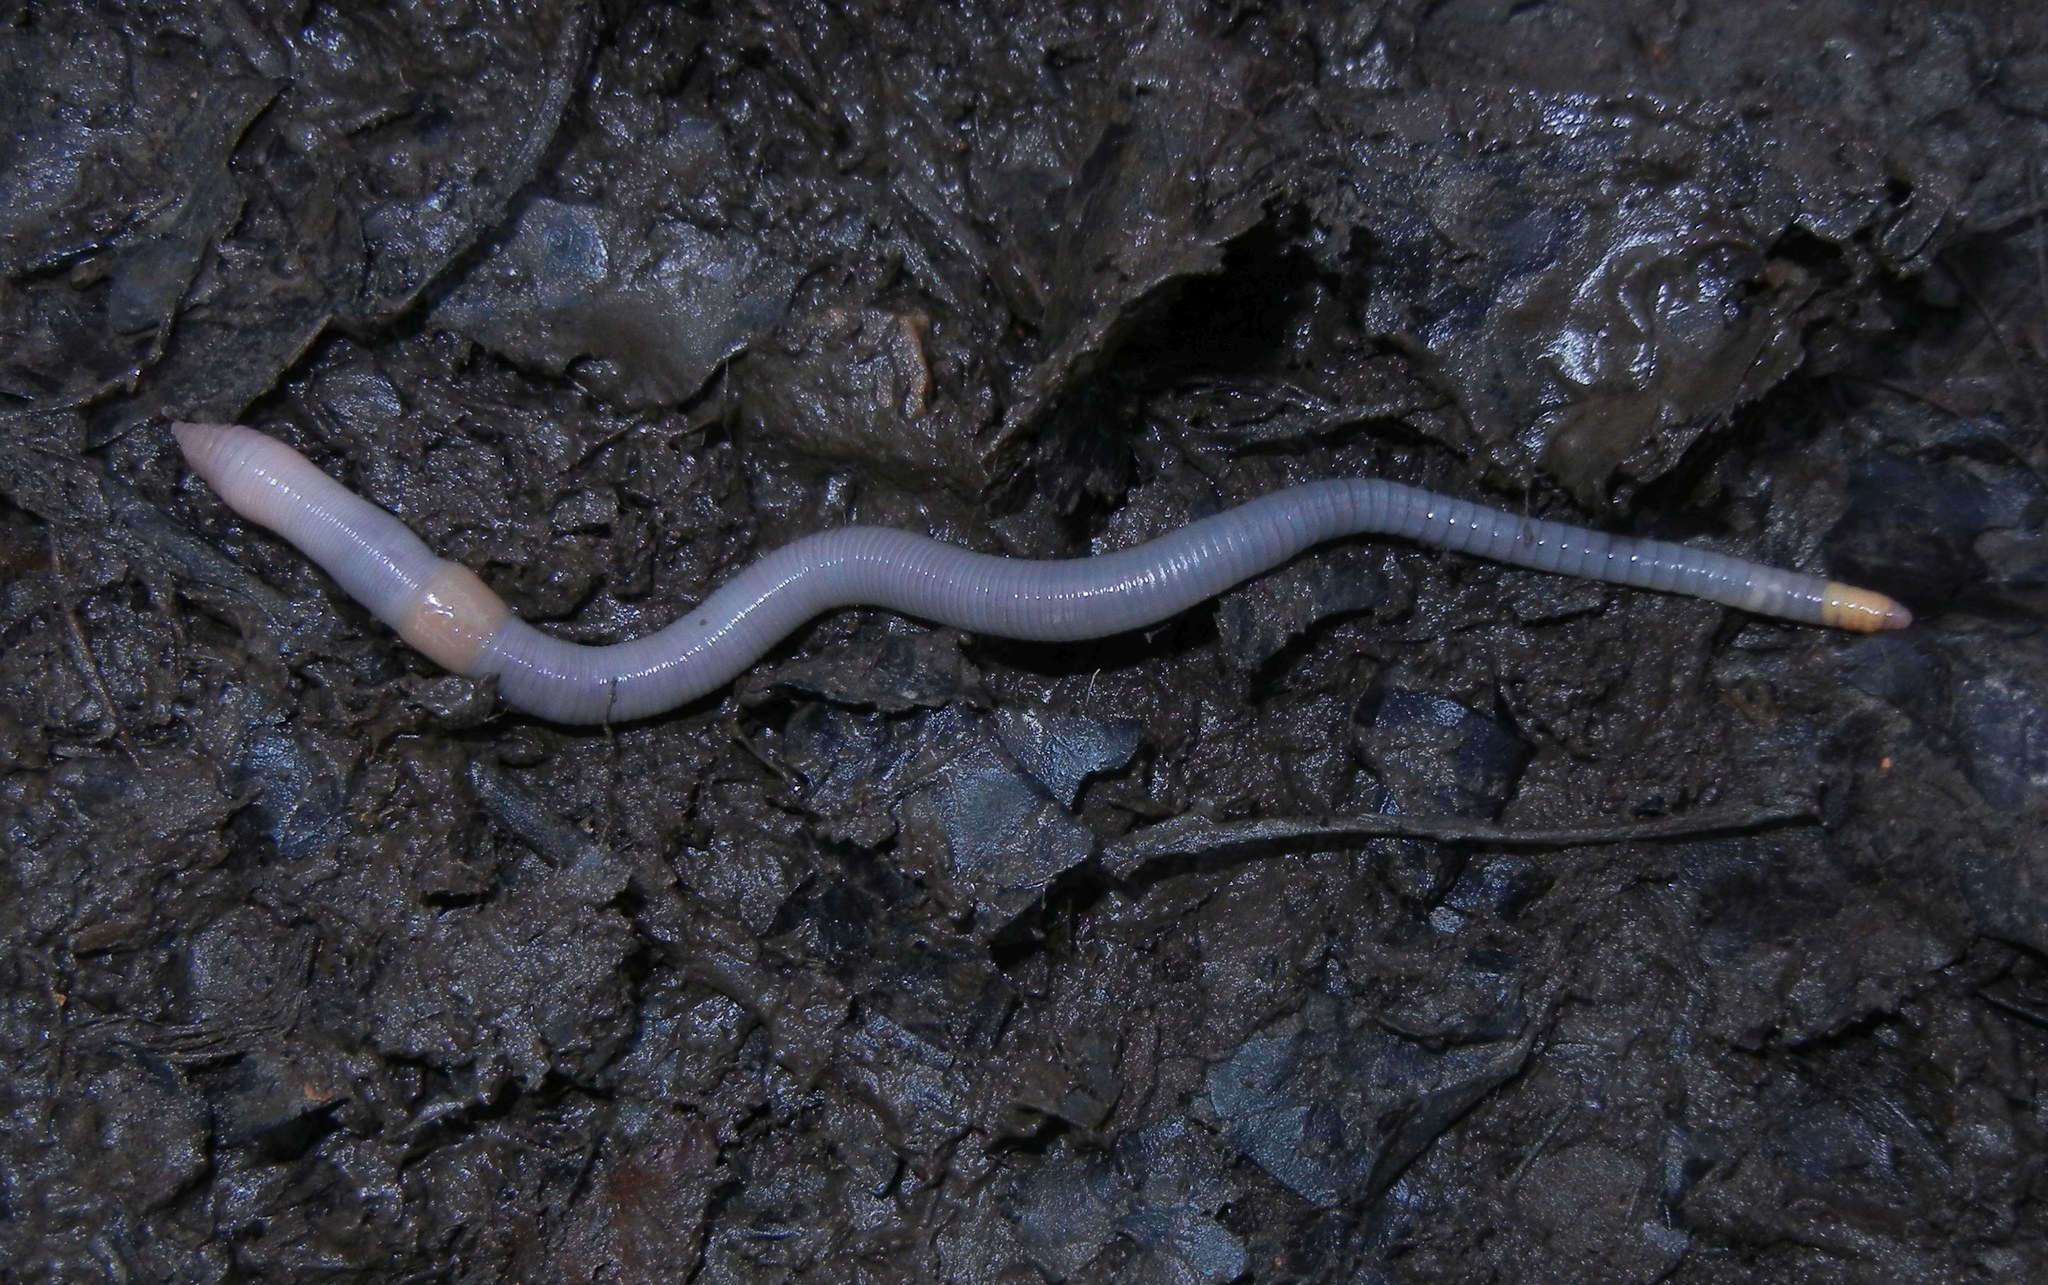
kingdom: Animalia
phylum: Annelida
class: Clitellata
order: Crassiclitellata
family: Lumbricidae
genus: Octolasion
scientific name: Octolasion cyaneum
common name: Woodland blue worm
